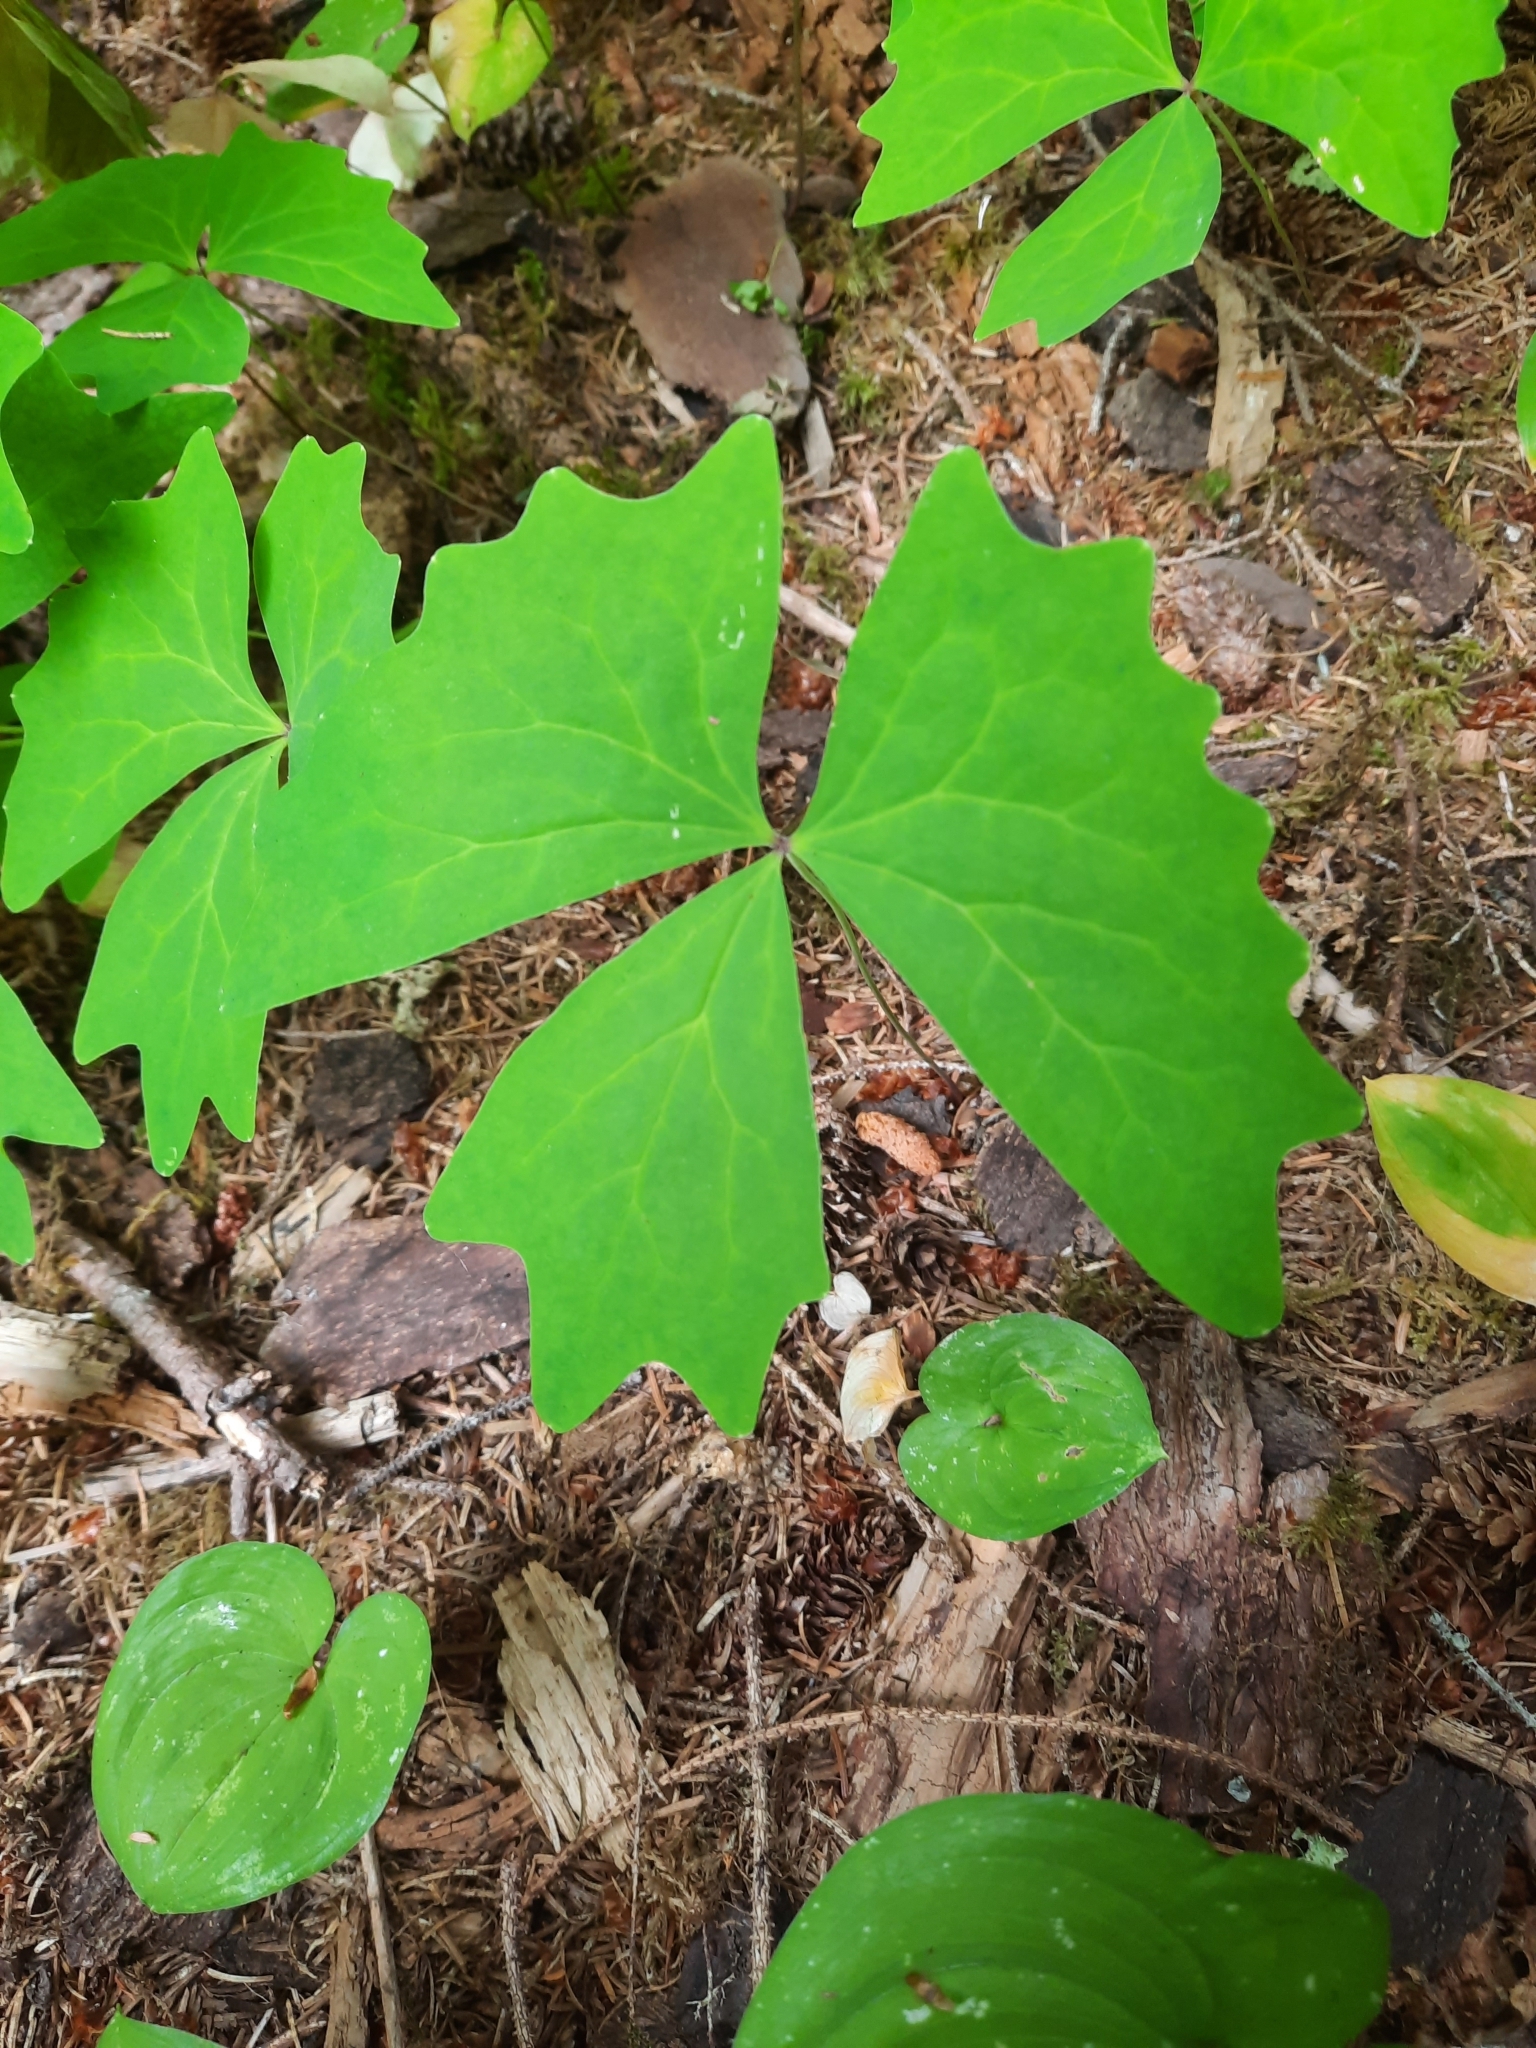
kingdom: Plantae
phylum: Tracheophyta
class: Magnoliopsida
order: Ranunculales
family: Berberidaceae
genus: Achlys
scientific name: Achlys triphylla
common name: Vanilla-leaf
